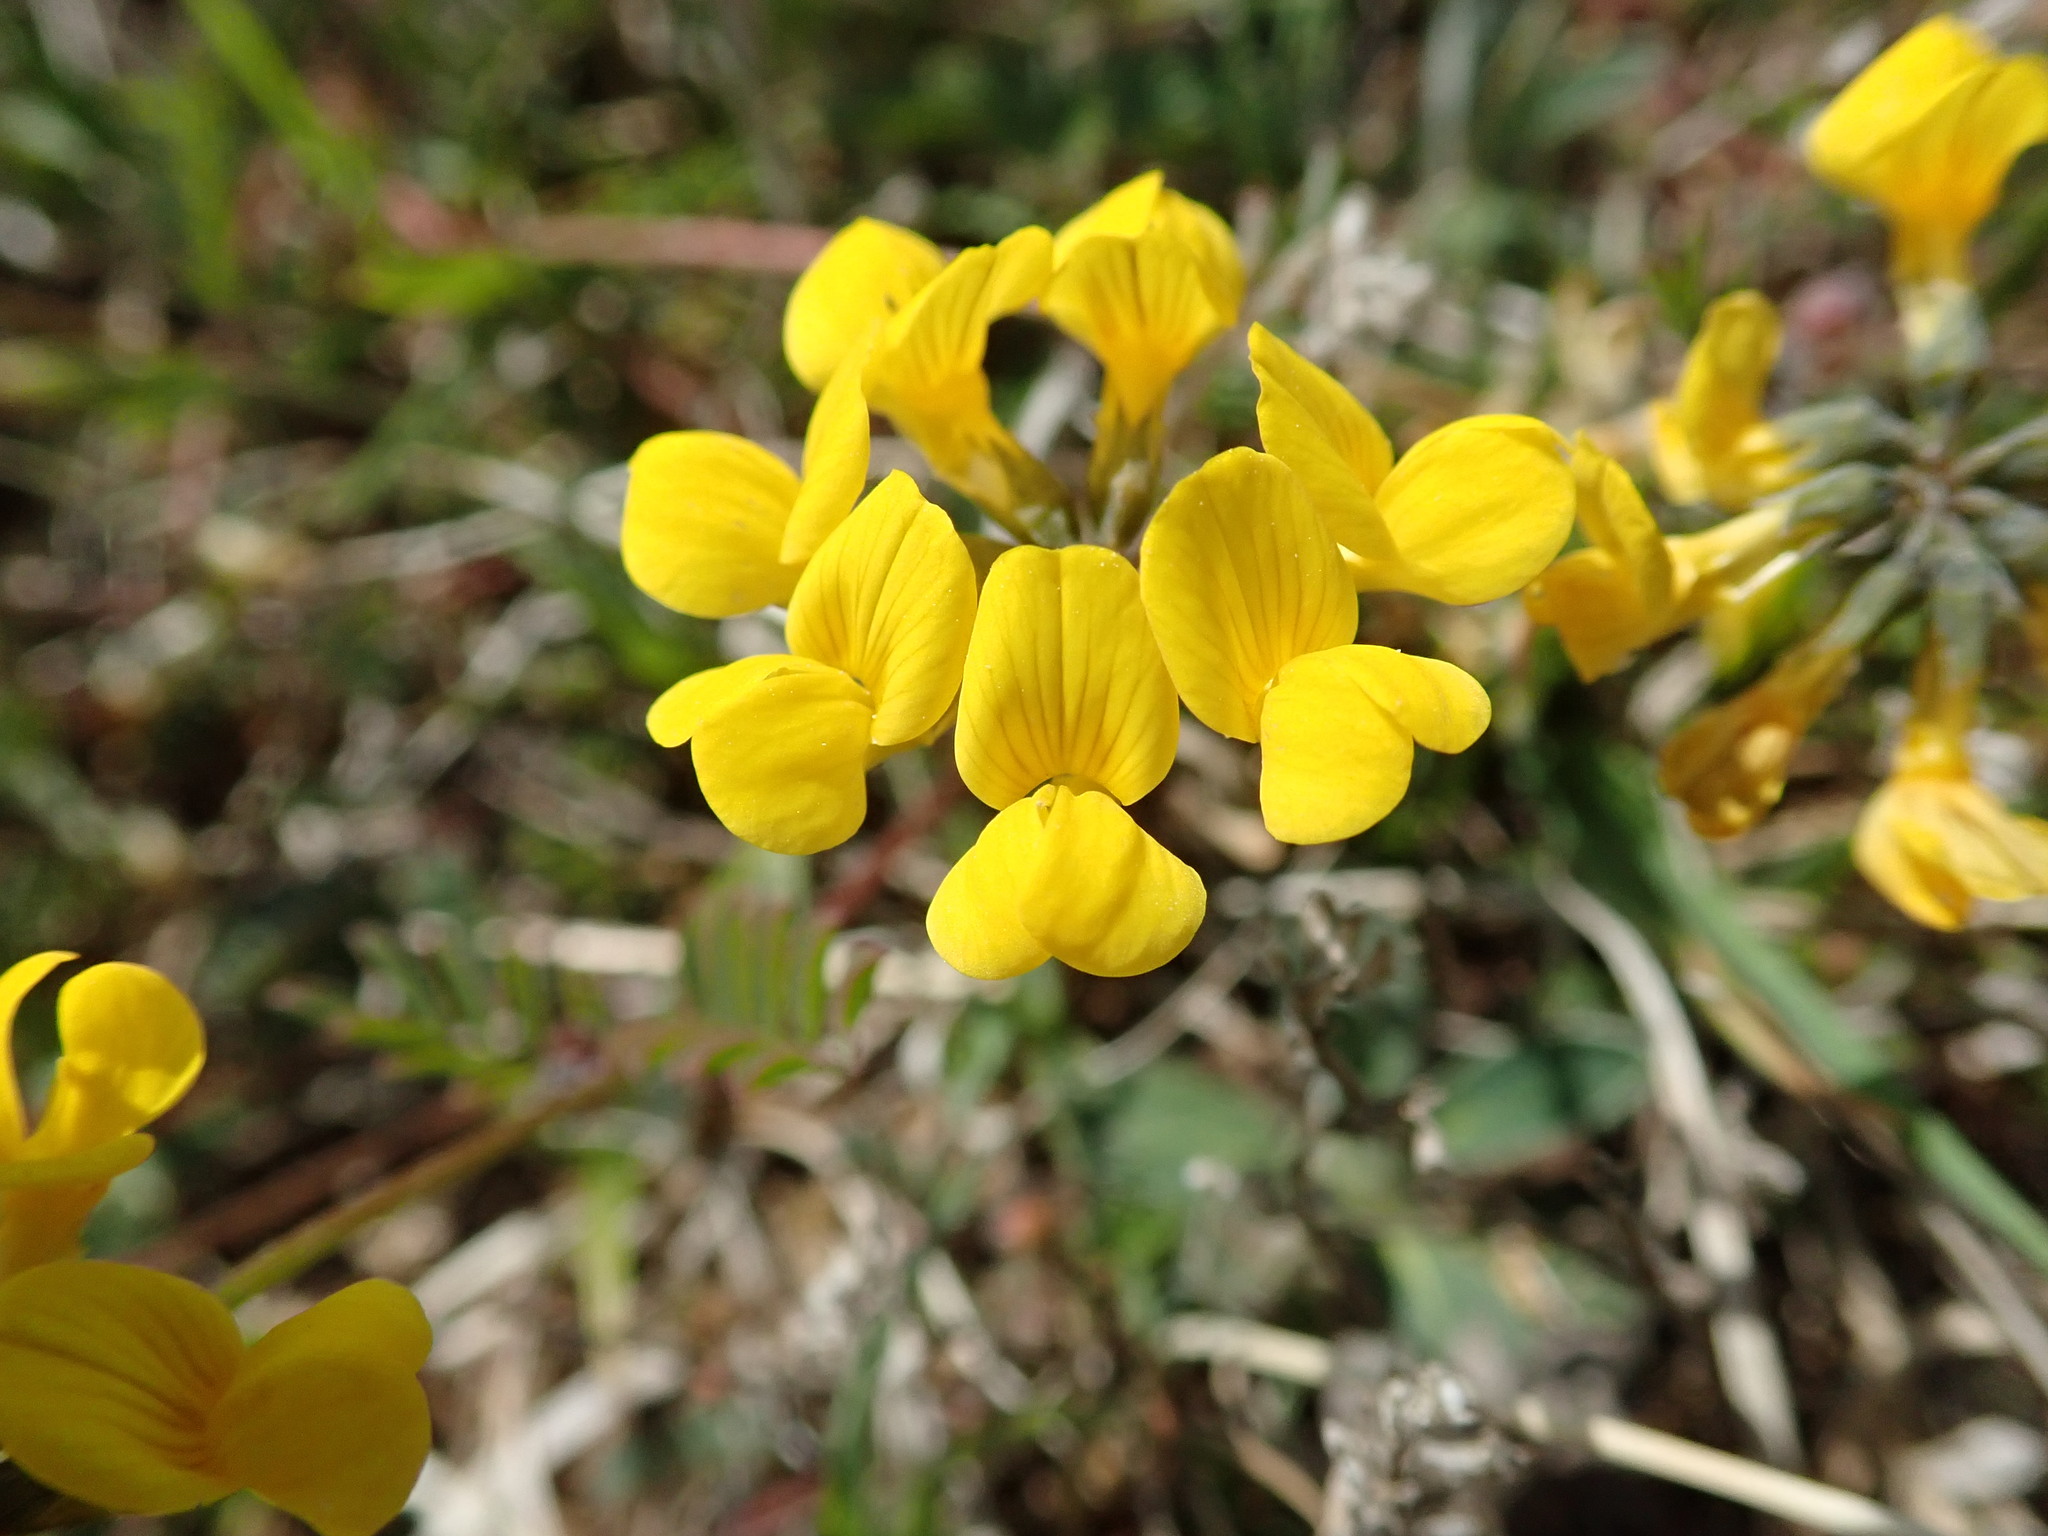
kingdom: Plantae
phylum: Tracheophyta
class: Magnoliopsida
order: Fabales
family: Fabaceae
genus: Hippocrepis
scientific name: Hippocrepis comosa
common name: Horseshoe vetch
